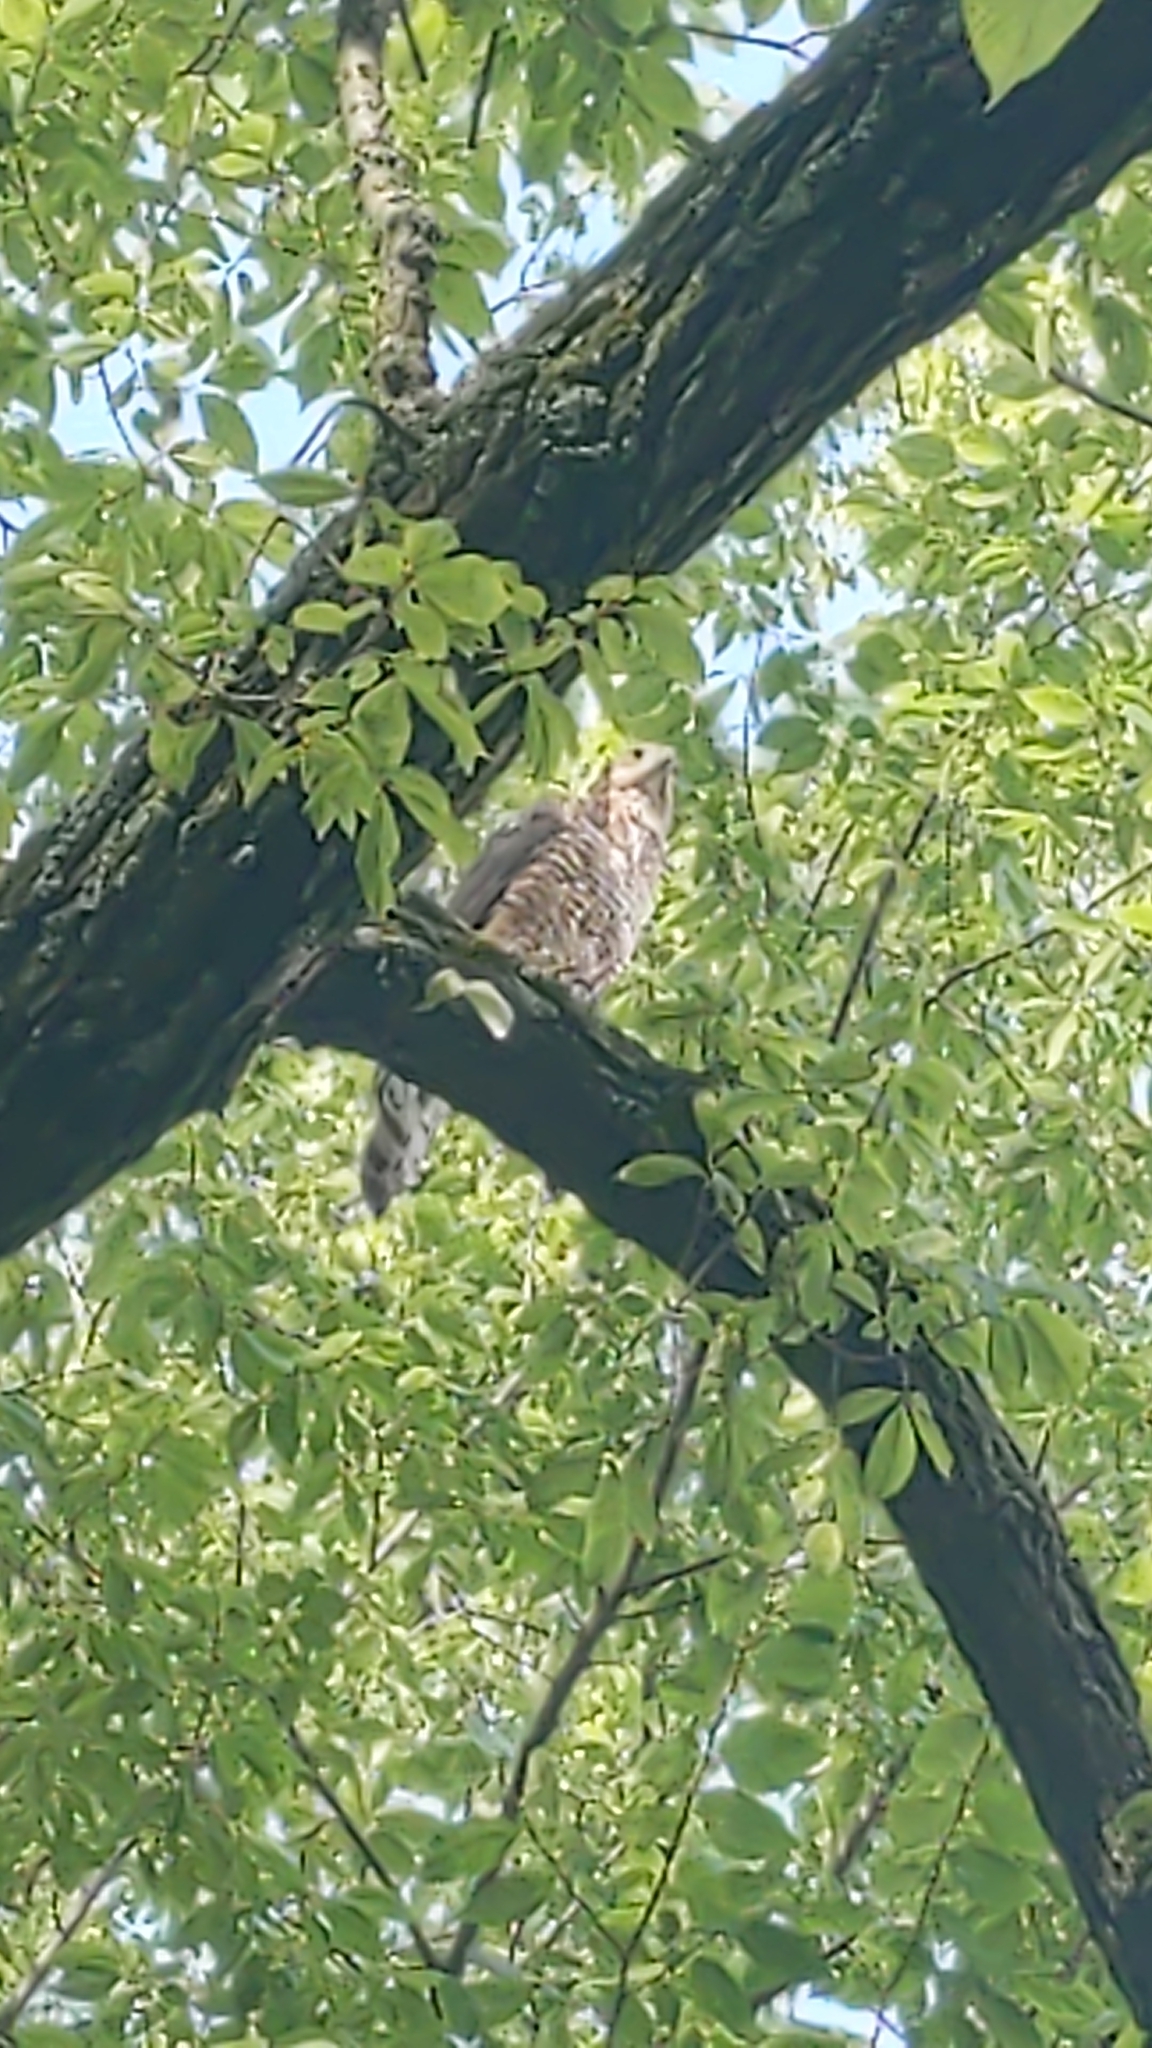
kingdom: Animalia
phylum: Chordata
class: Aves
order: Accipitriformes
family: Accipitridae
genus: Accipiter
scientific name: Accipiter cooperii
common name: Cooper's hawk
